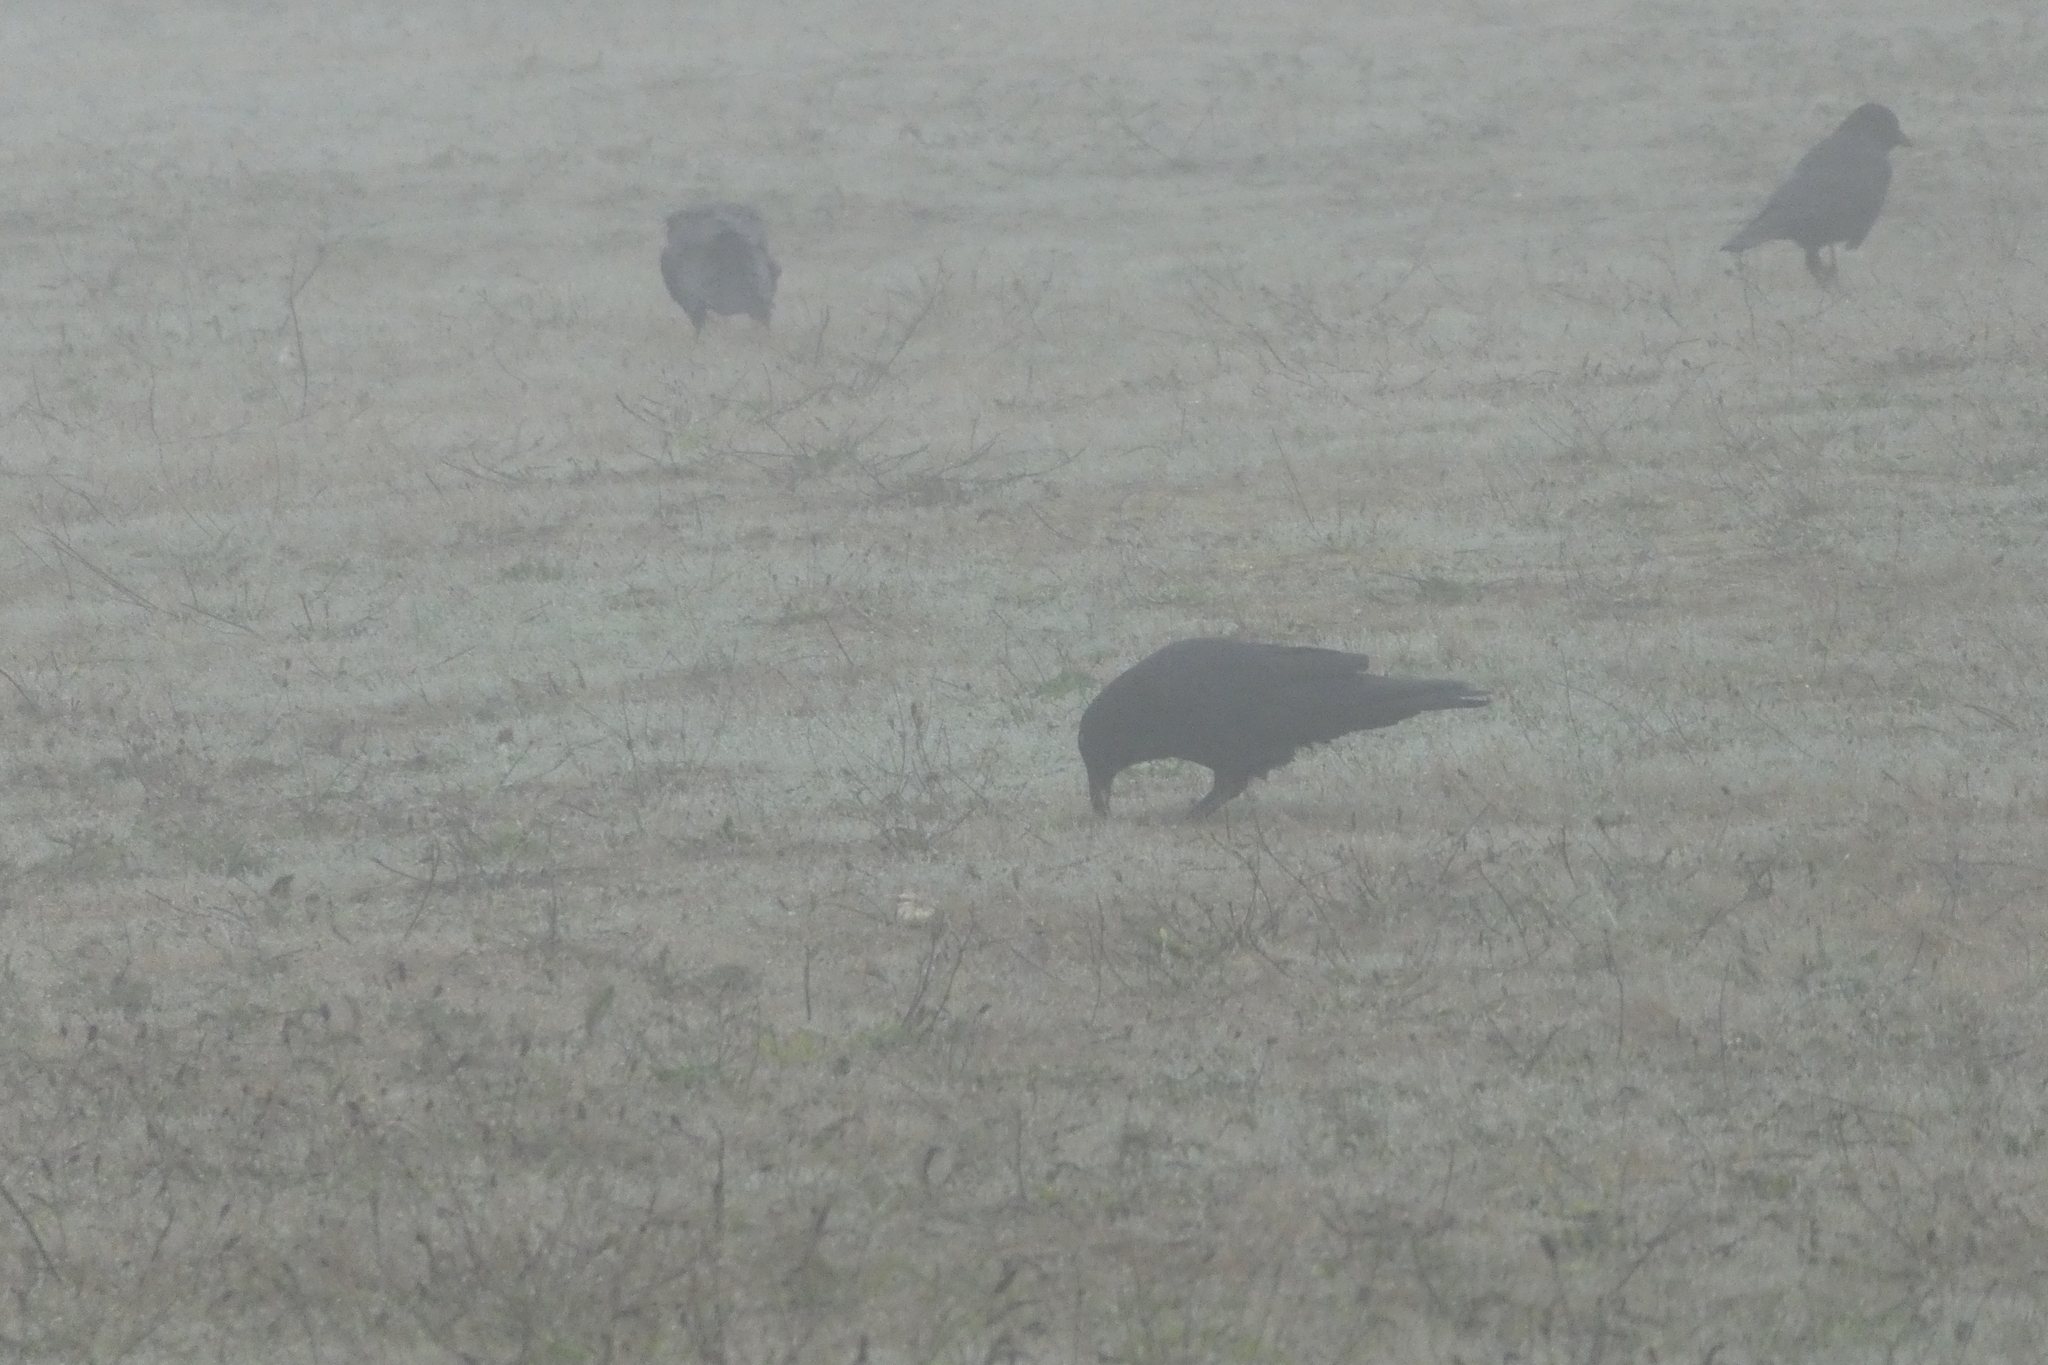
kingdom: Animalia
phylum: Chordata
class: Aves
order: Passeriformes
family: Corvidae
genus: Corvus
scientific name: Corvus brachyrhynchos
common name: American crow
